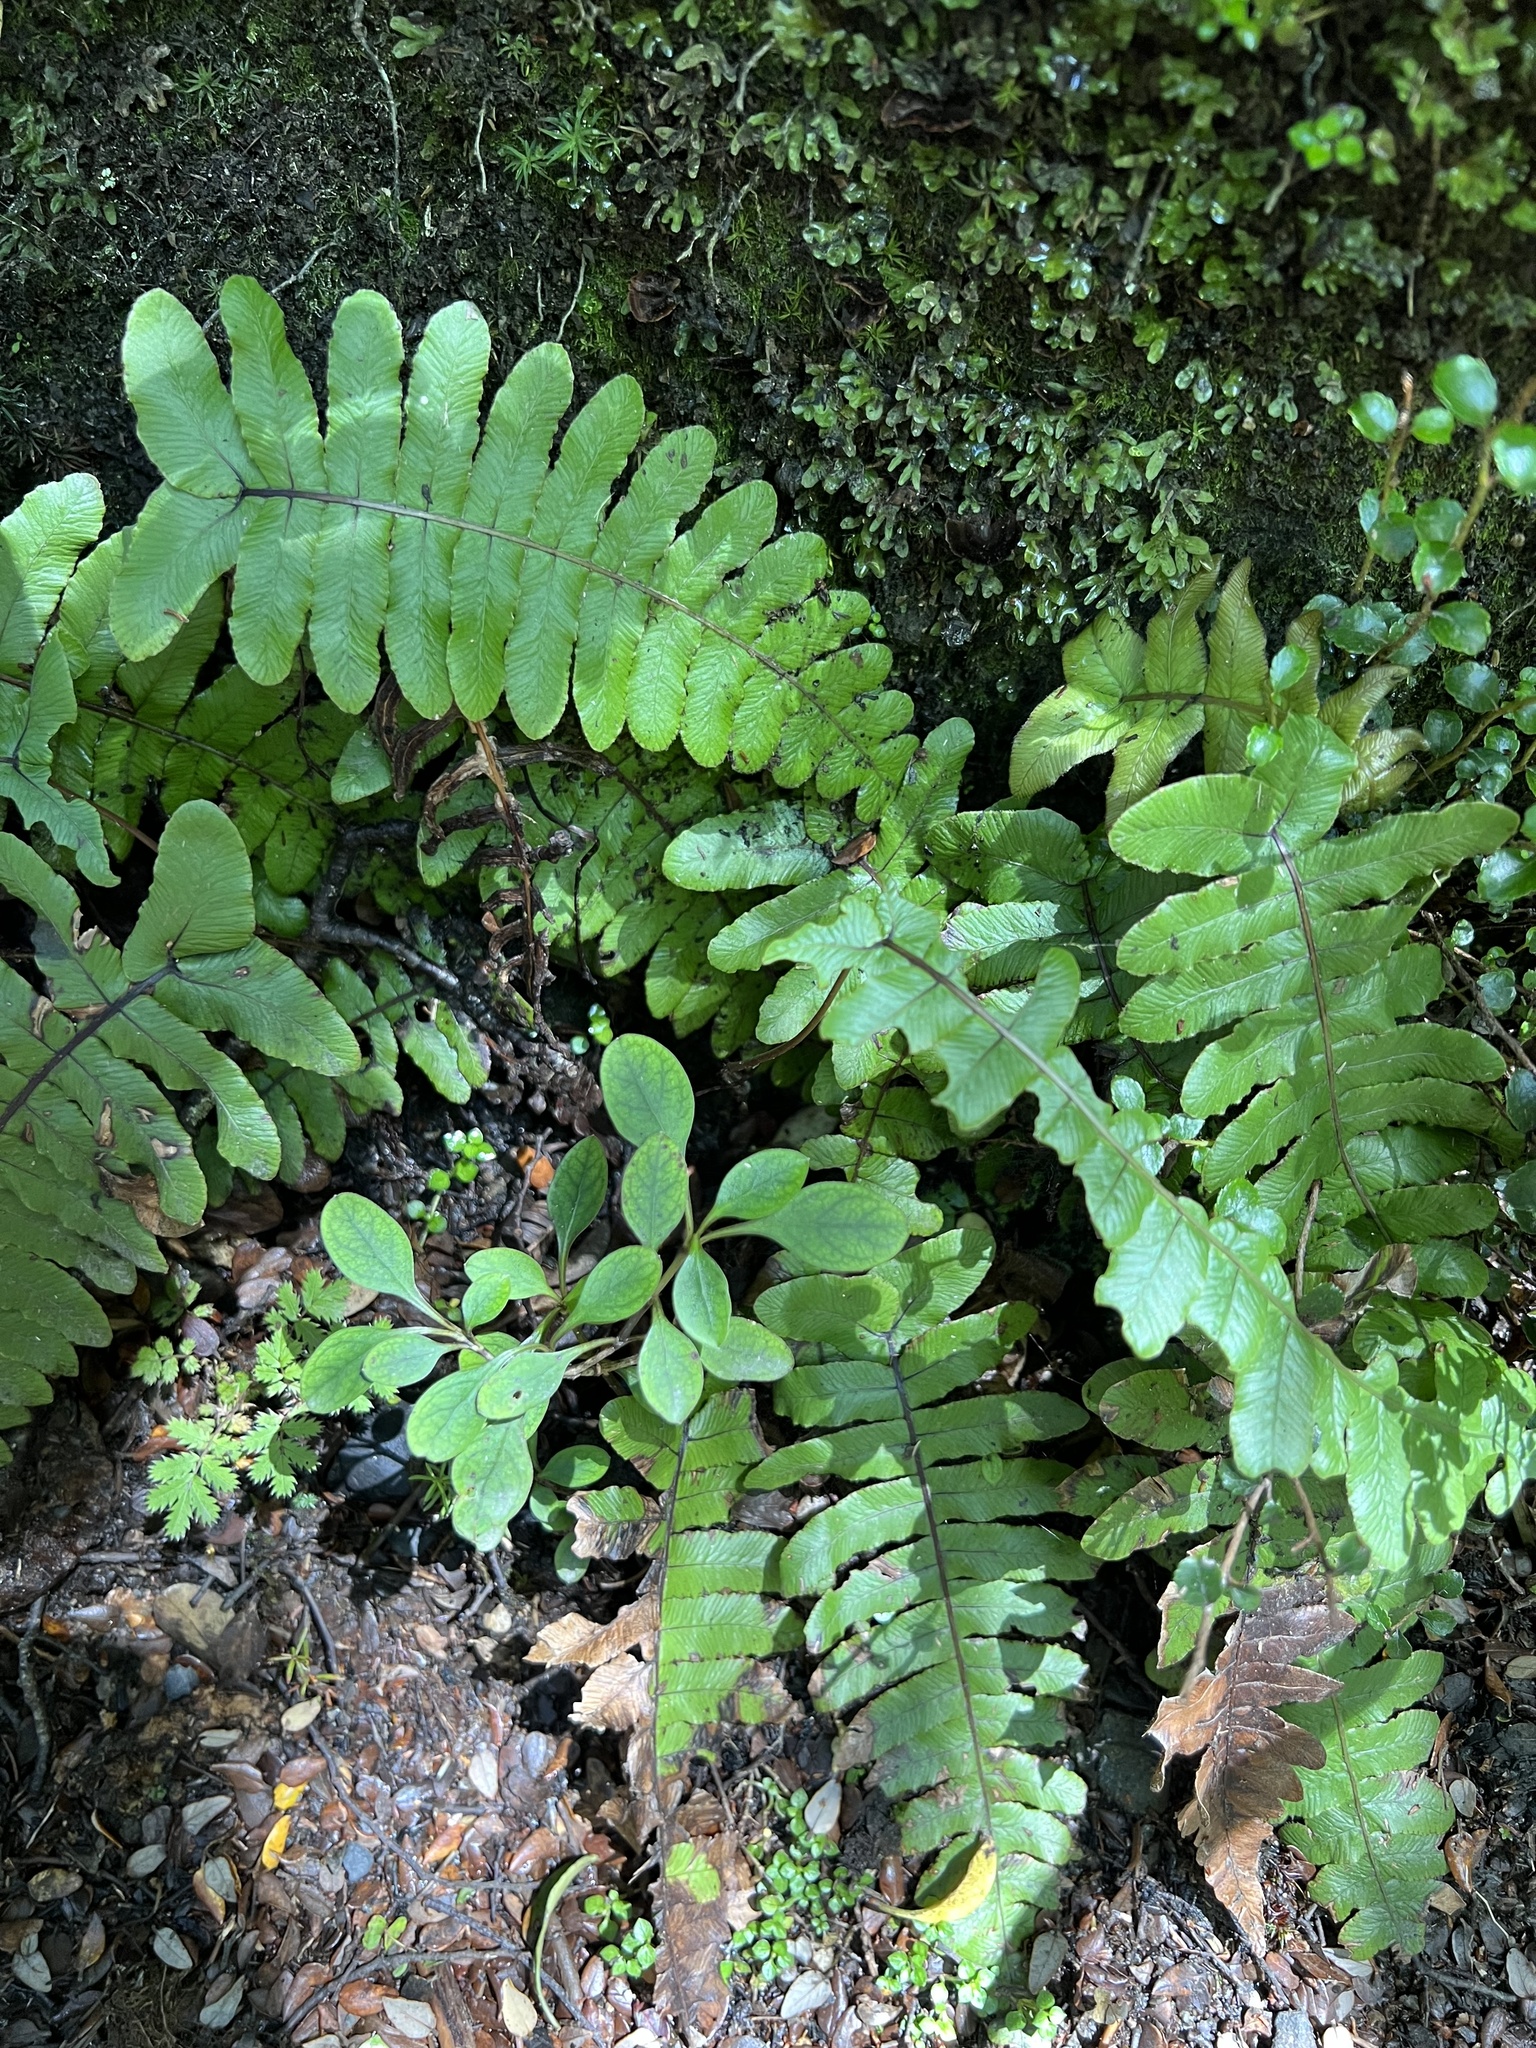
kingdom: Plantae
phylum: Tracheophyta
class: Polypodiopsida
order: Polypodiales
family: Blechnaceae
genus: Cranfillia
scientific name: Cranfillia deltoides
